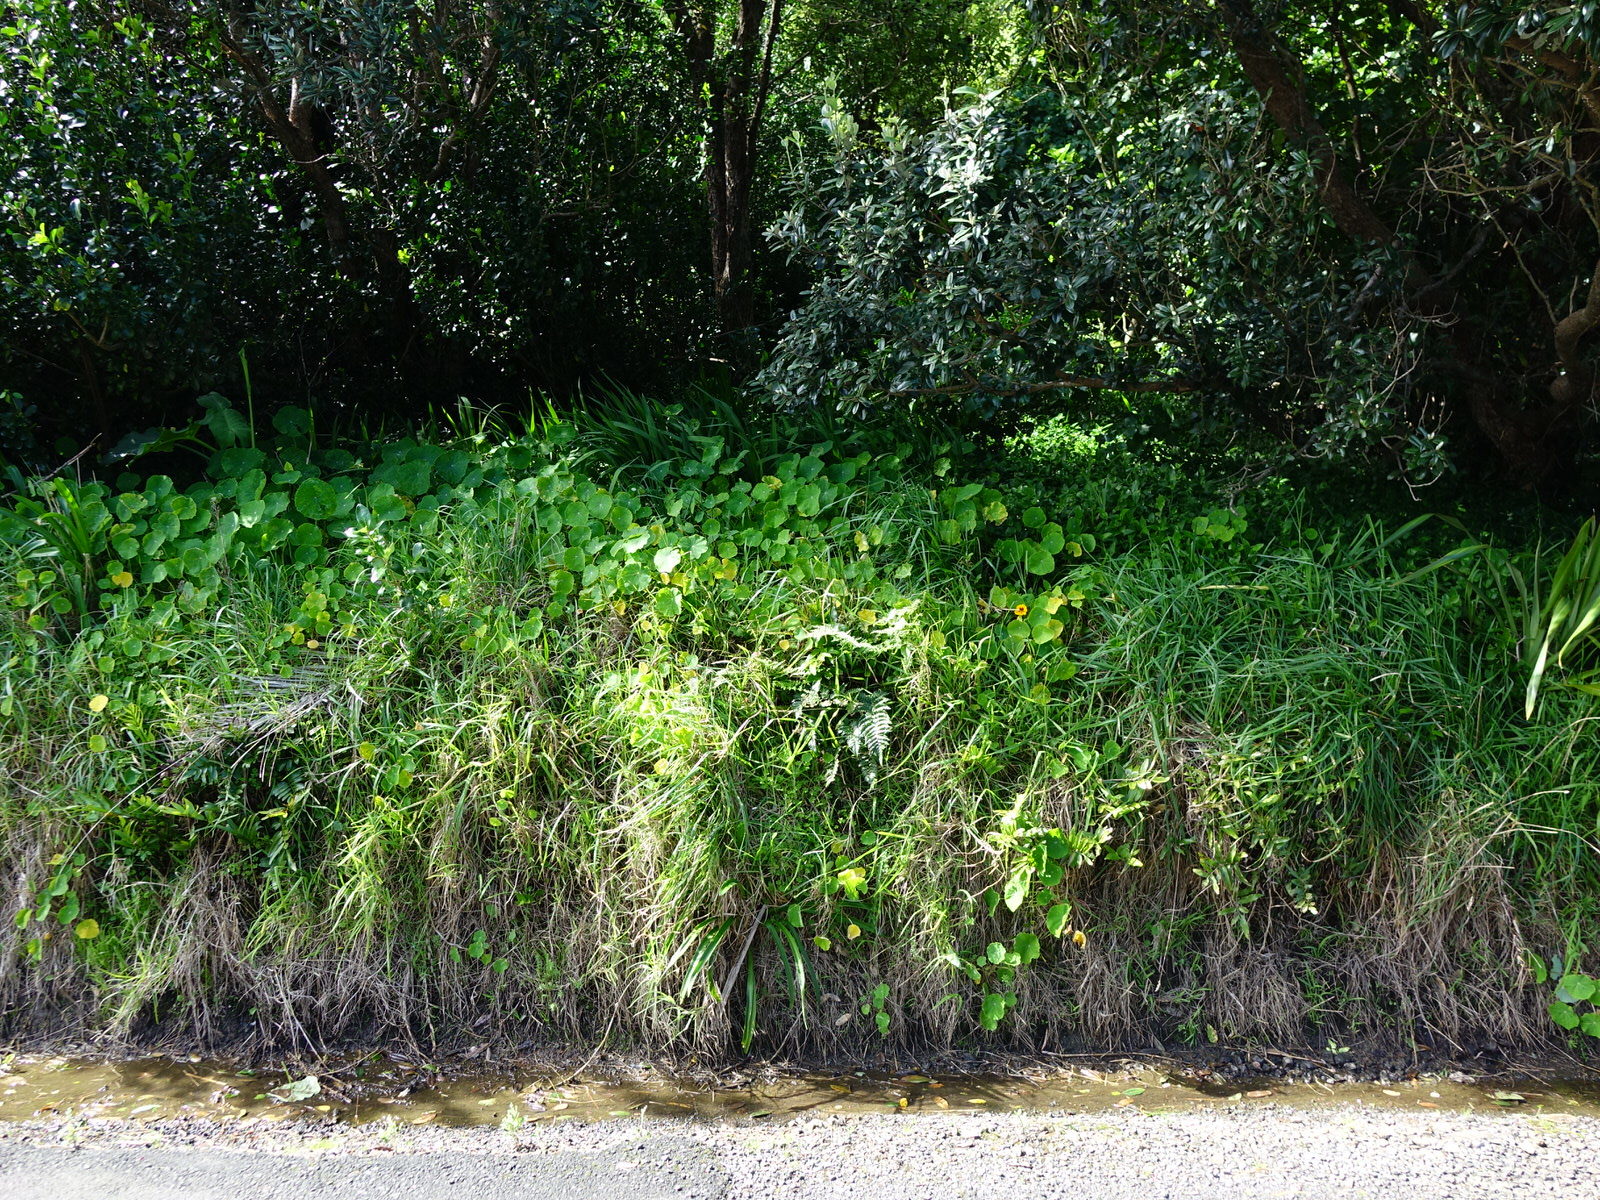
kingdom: Plantae
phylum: Tracheophyta
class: Polypodiopsida
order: Polypodiales
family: Dryopteridaceae
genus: Polystichum
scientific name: Polystichum wawranum
